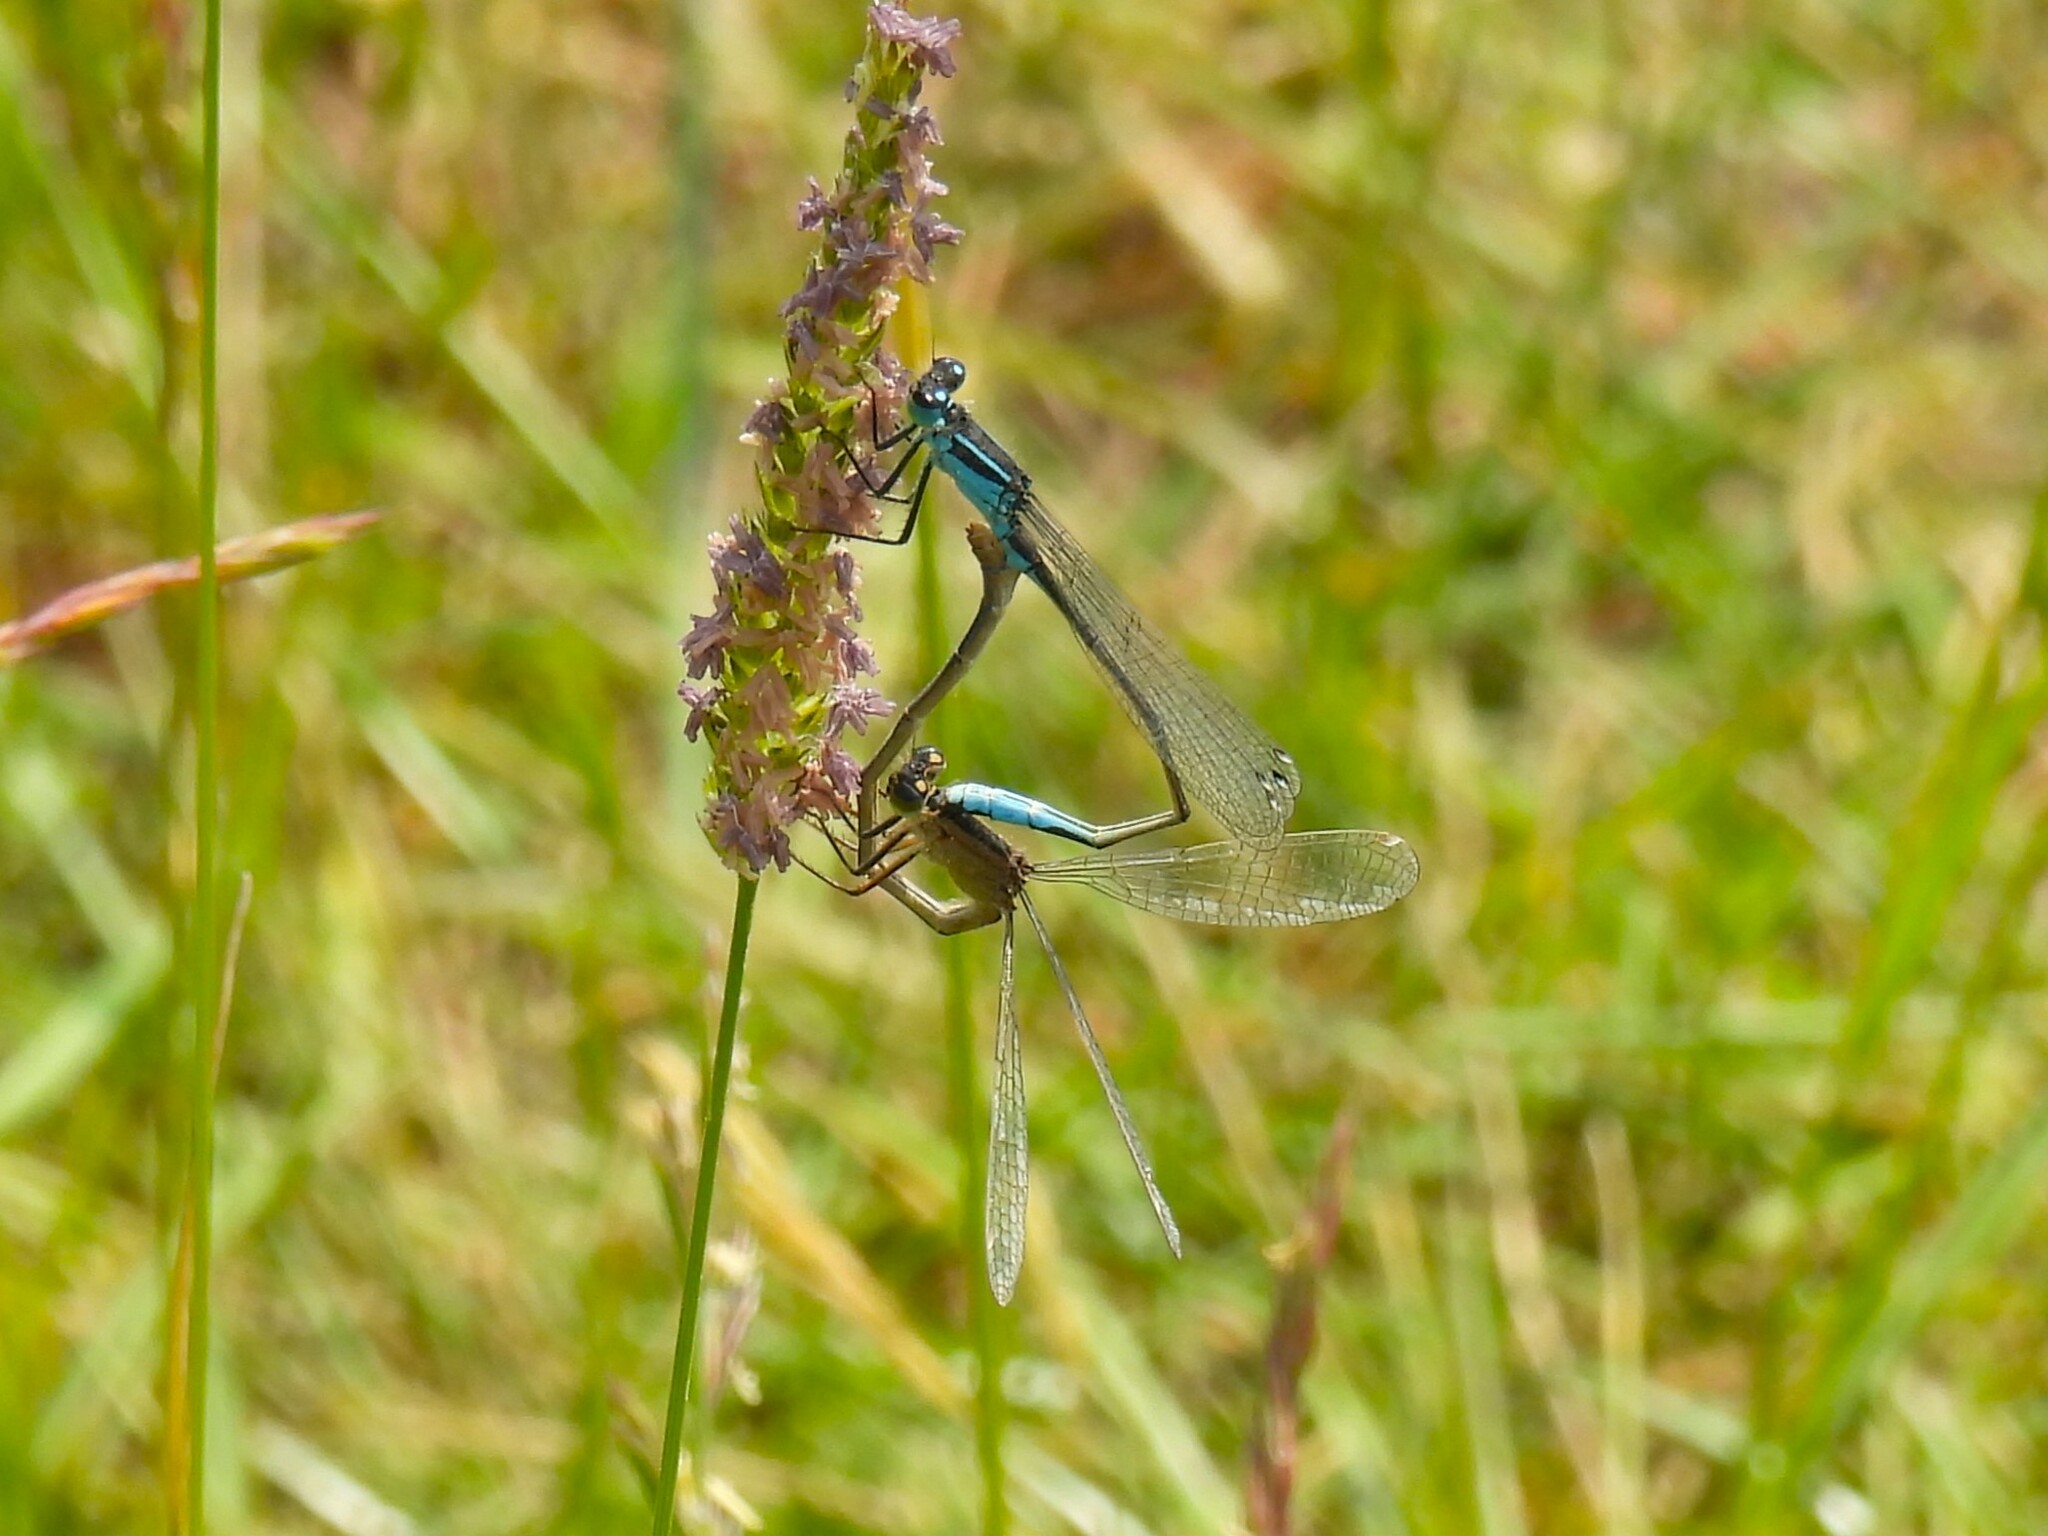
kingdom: Animalia
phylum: Arthropoda
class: Insecta
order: Odonata
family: Coenagrionidae
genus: Ischnura
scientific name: Ischnura elegans
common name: Blue-tailed damselfly
